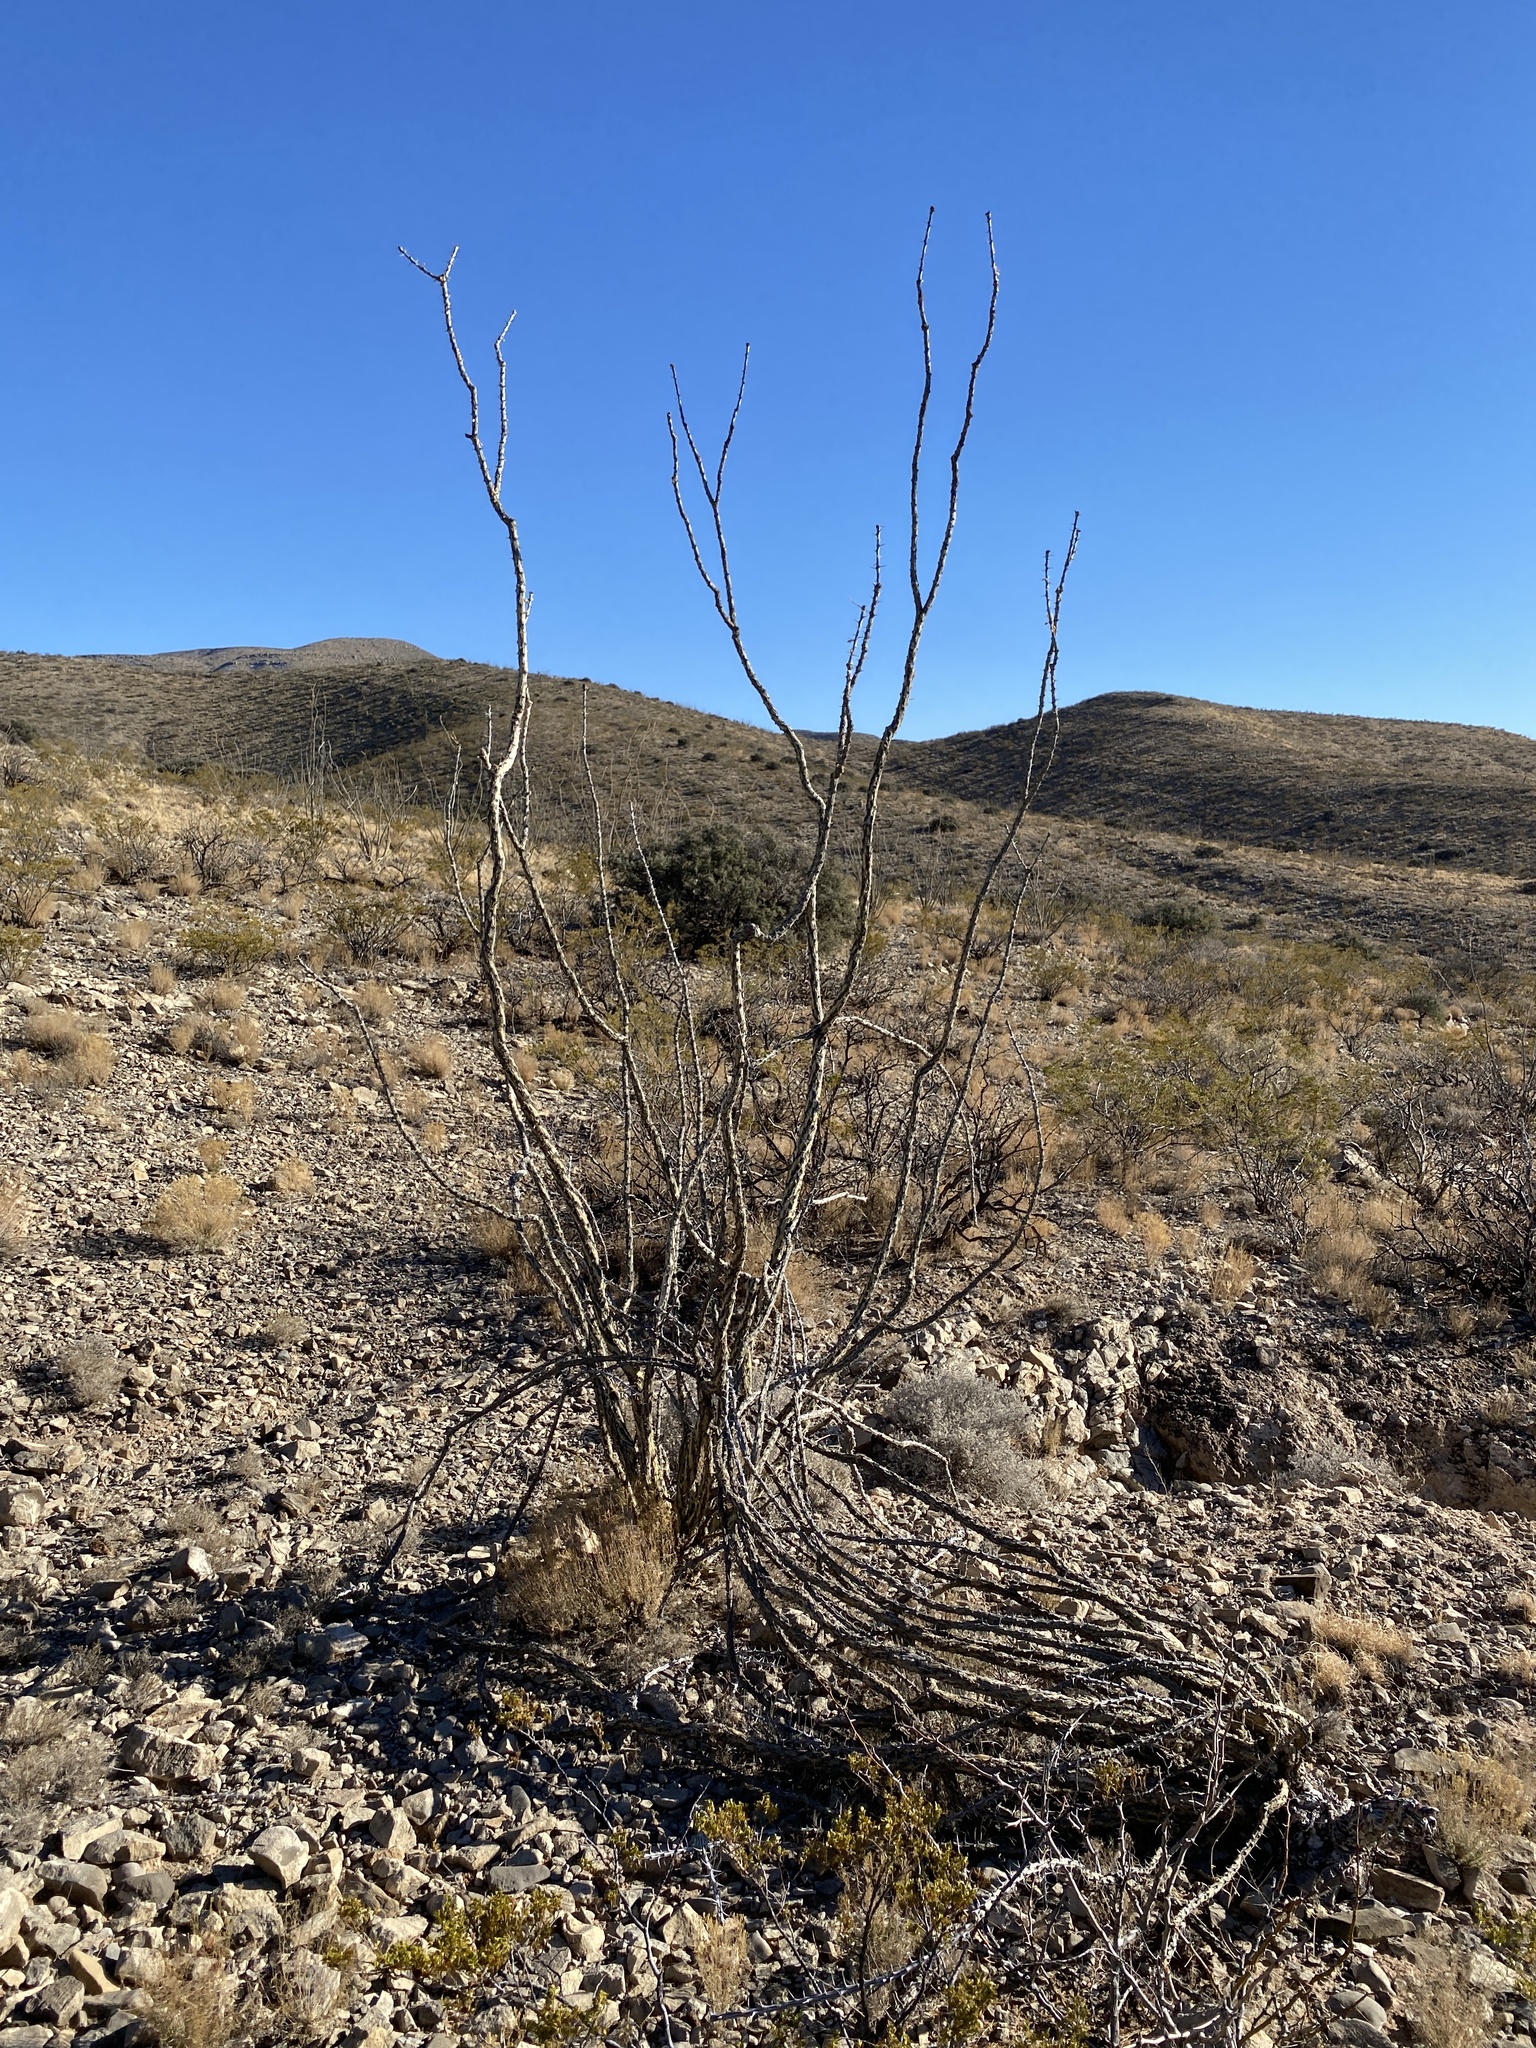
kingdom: Plantae
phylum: Tracheophyta
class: Magnoliopsida
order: Ericales
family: Fouquieriaceae
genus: Fouquieria
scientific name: Fouquieria splendens
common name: Vine-cactus
